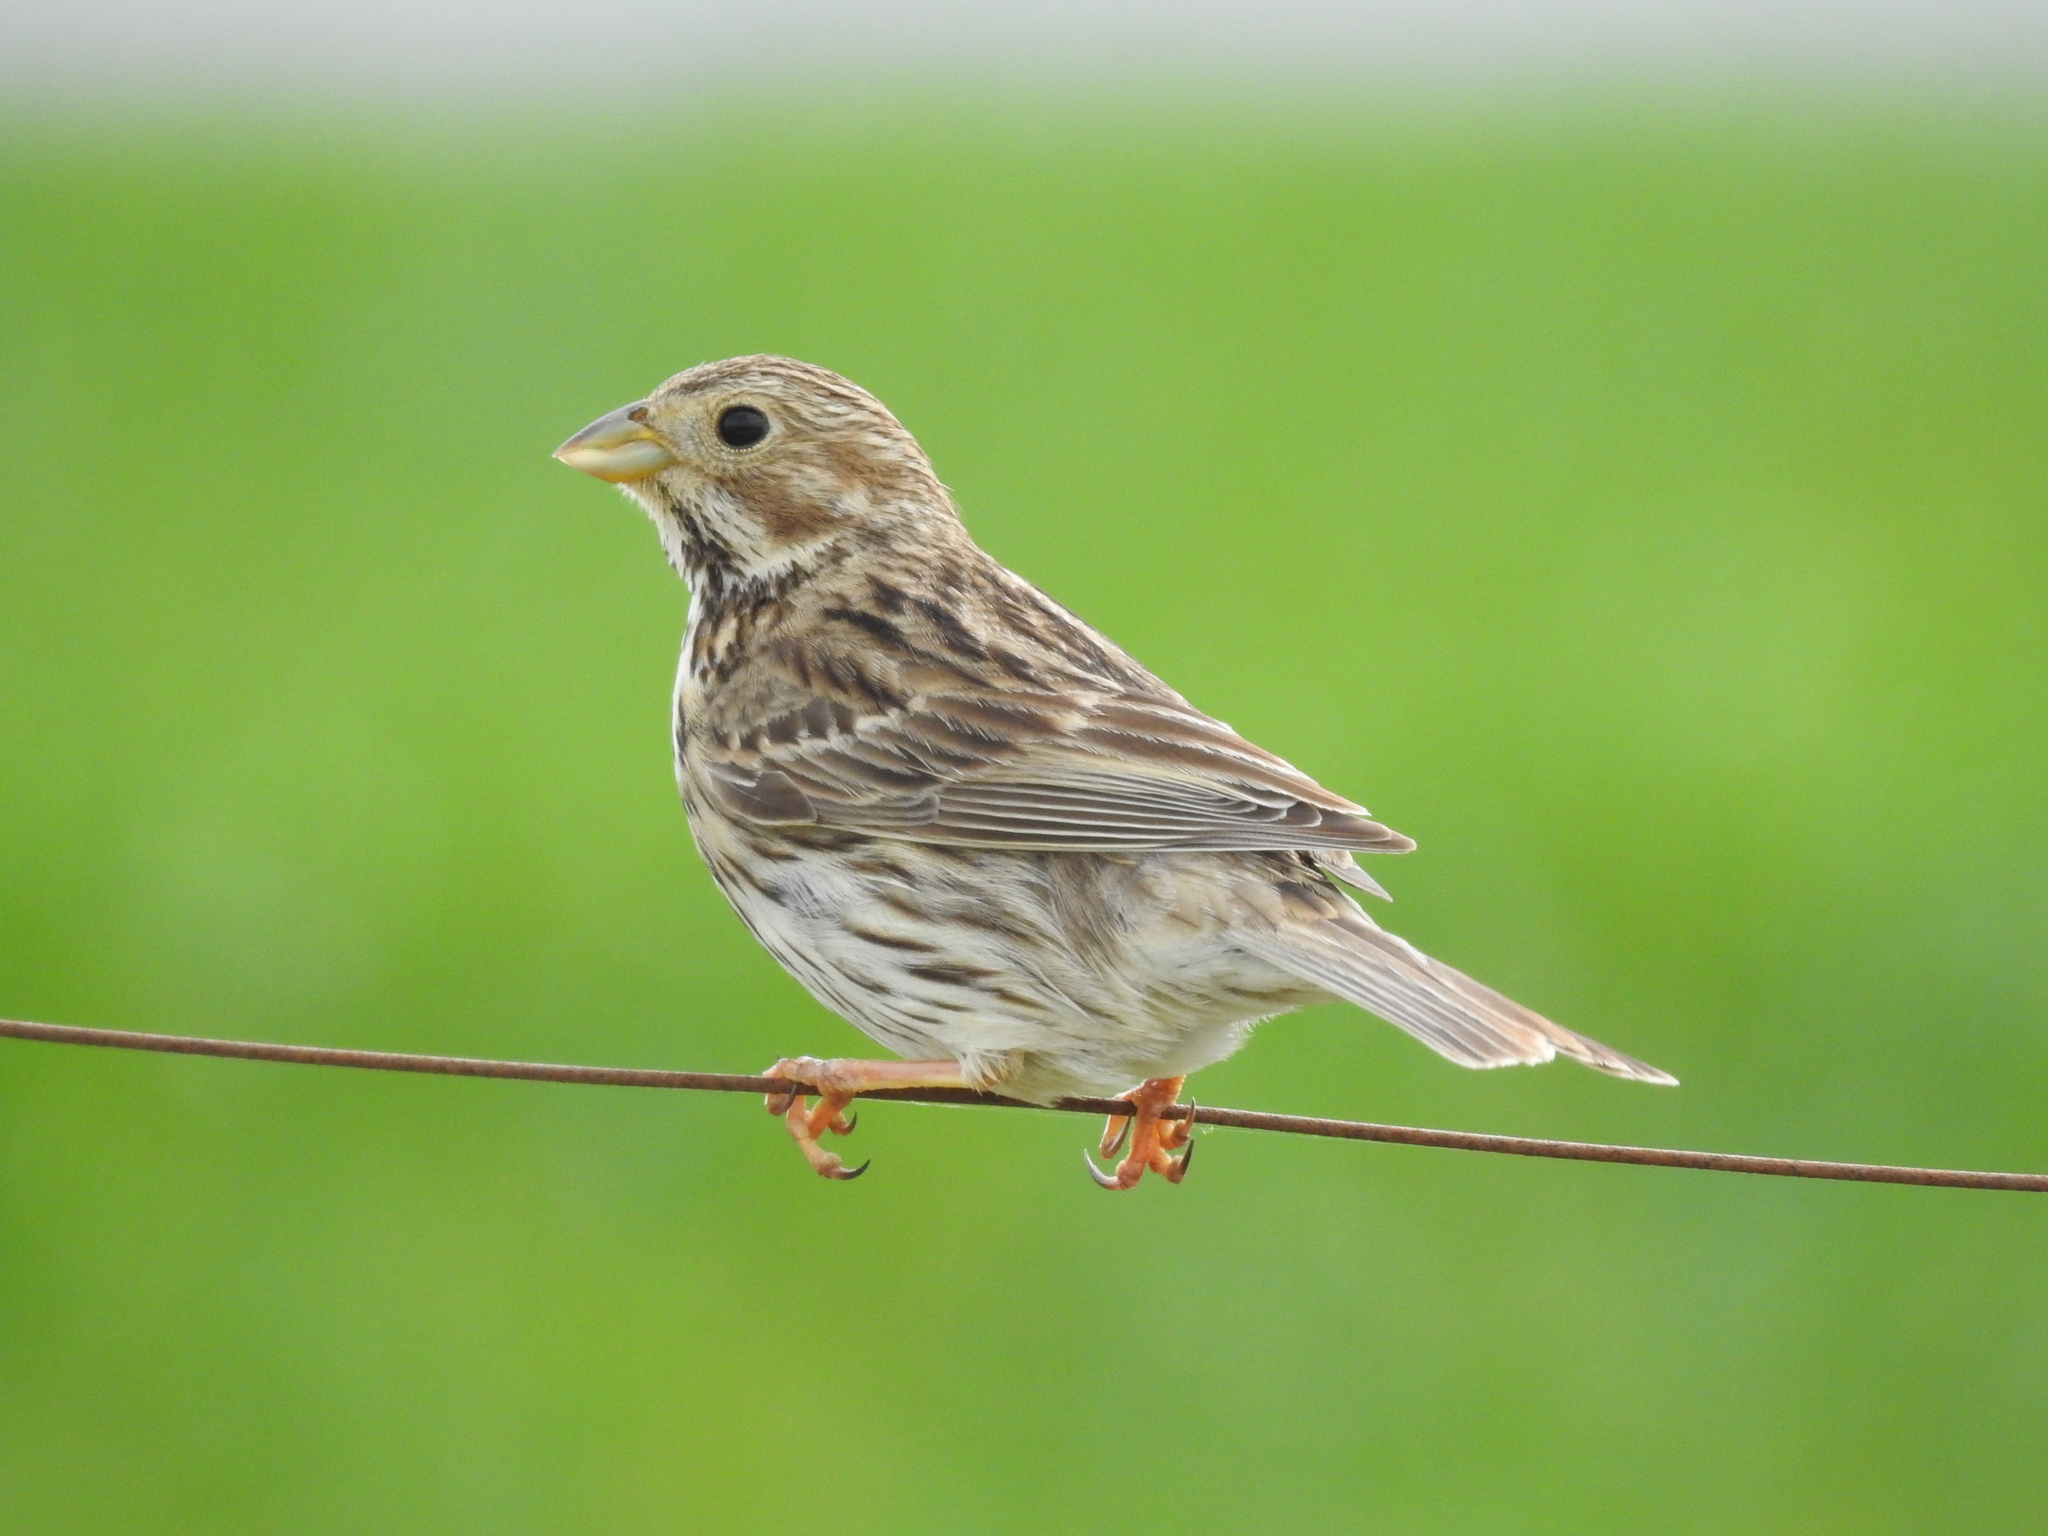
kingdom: Animalia
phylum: Chordata
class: Aves
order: Passeriformes
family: Emberizidae
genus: Emberiza
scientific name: Emberiza calandra
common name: Corn bunting
